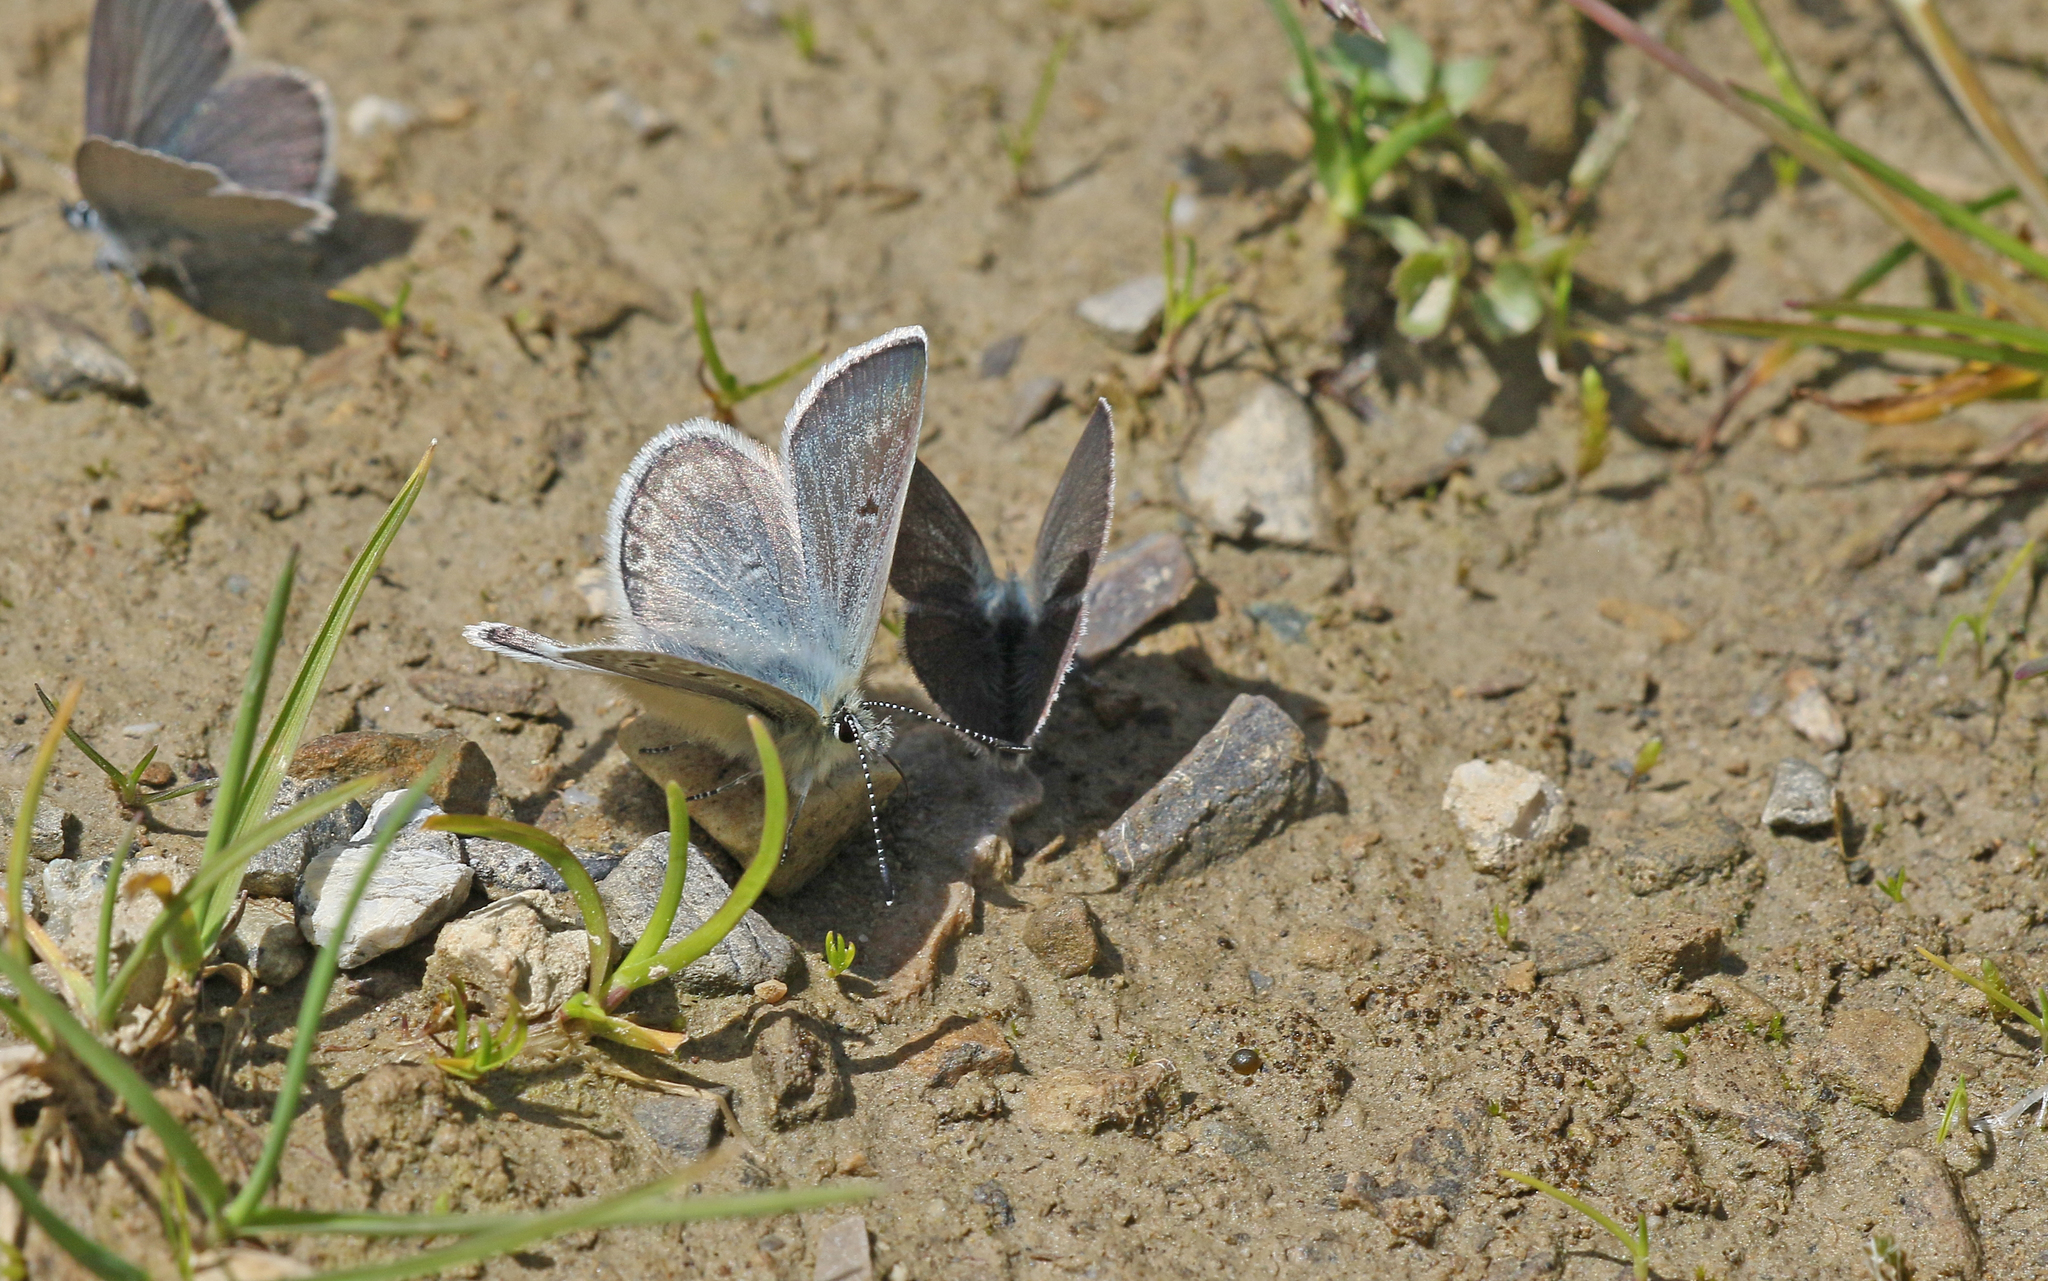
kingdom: Animalia
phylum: Arthropoda
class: Insecta
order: Lepidoptera
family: Lycaenidae
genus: Agriades
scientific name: Agriades glandon
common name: Glandon blue
